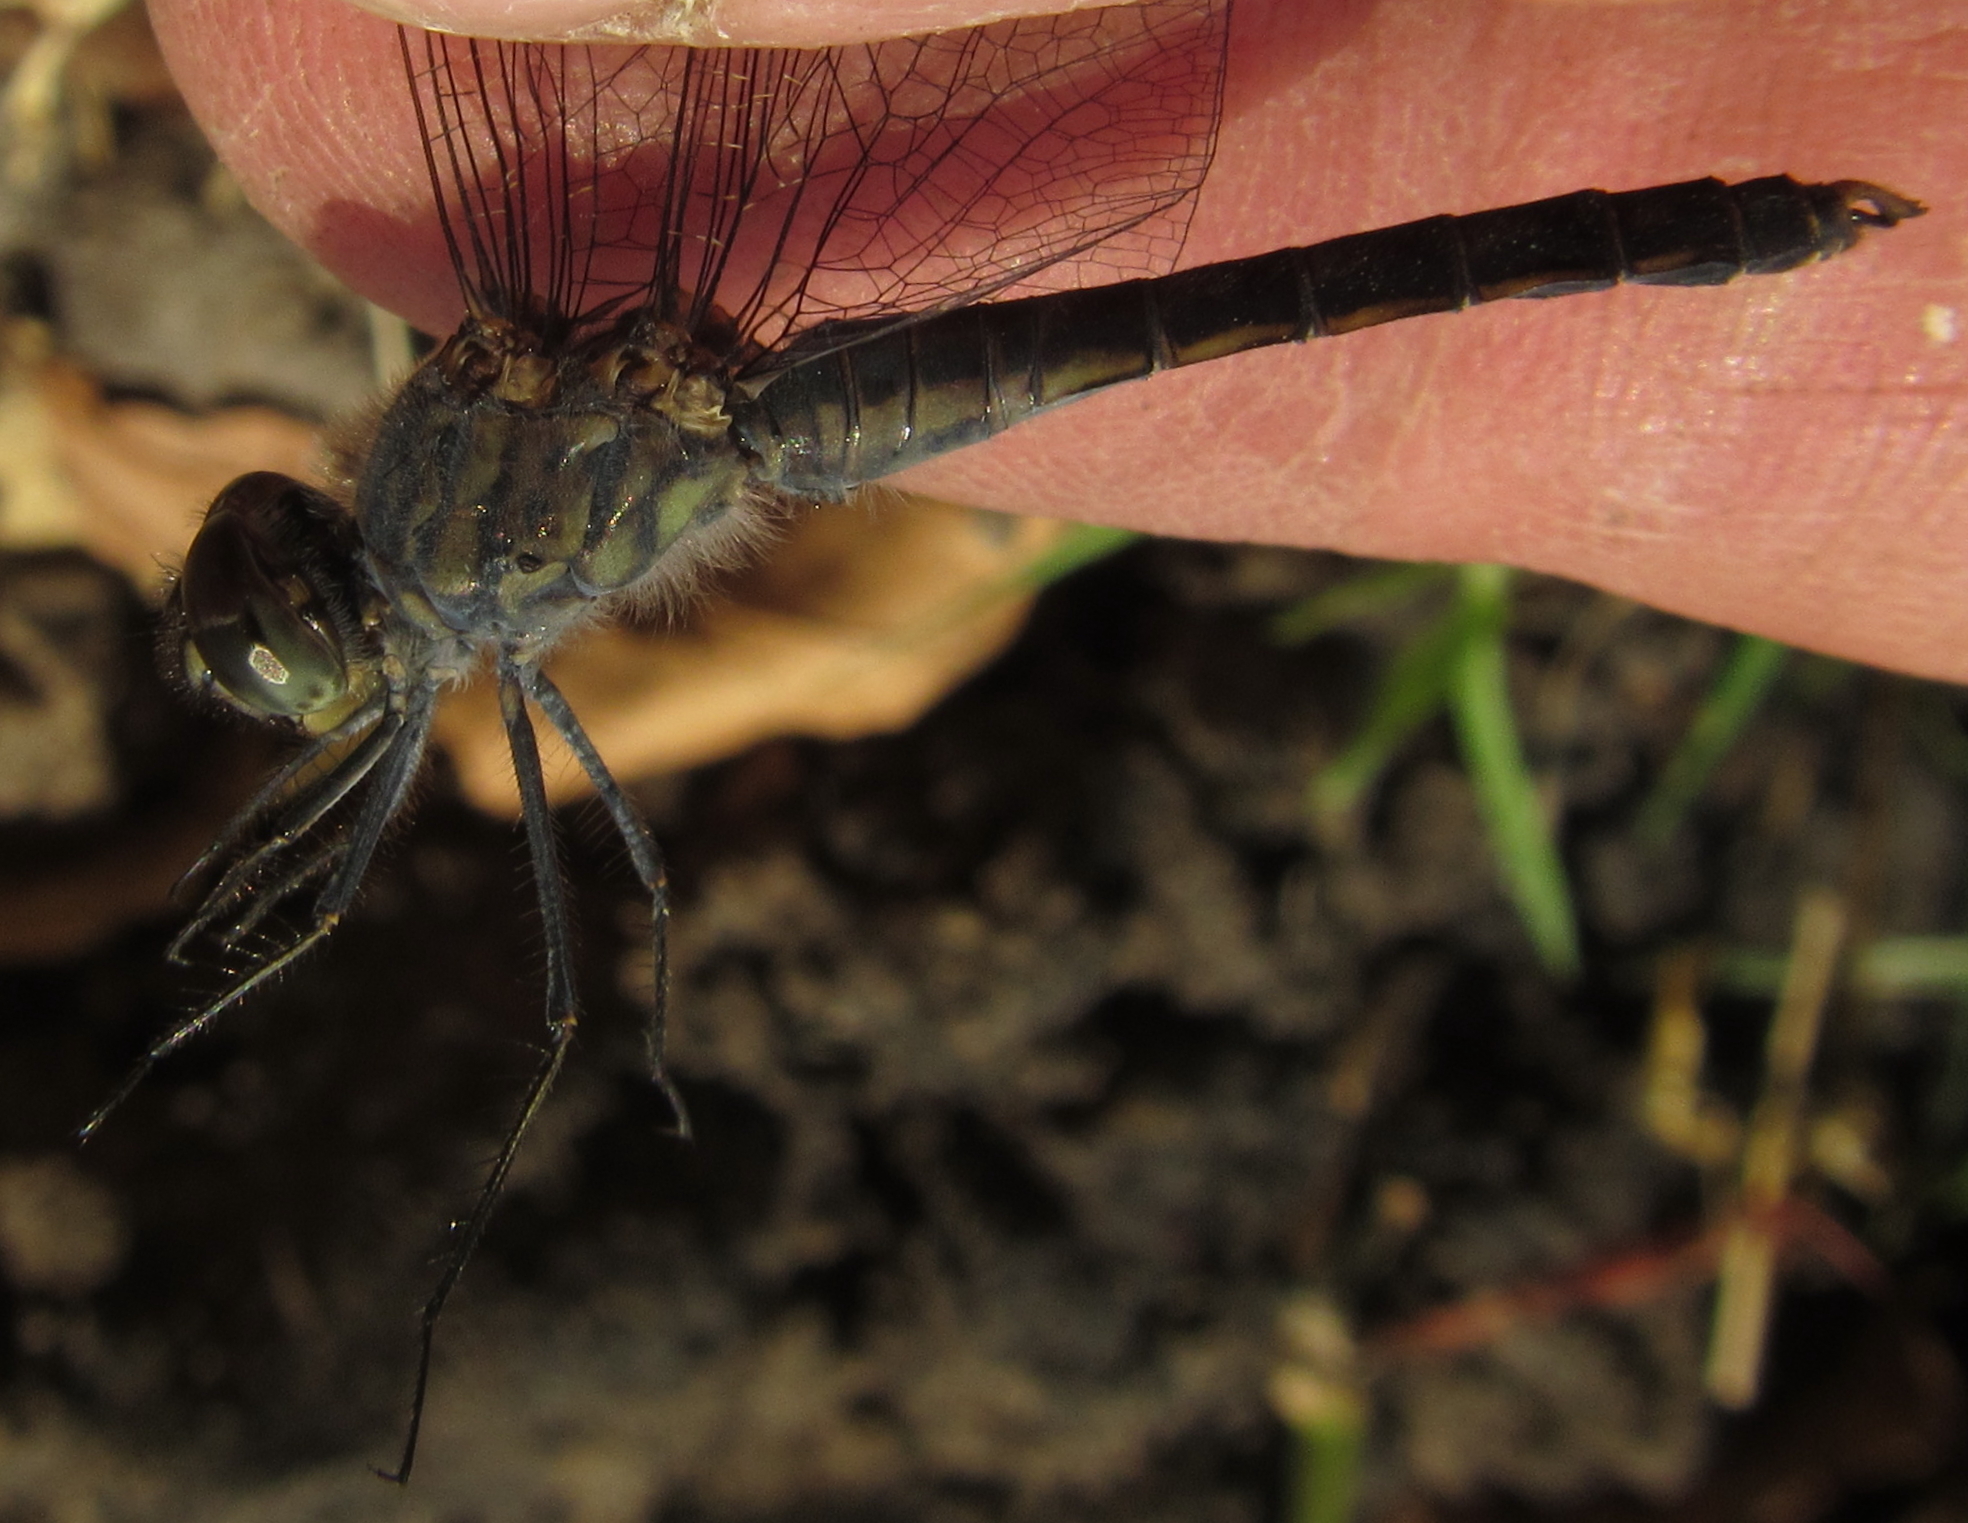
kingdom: Animalia
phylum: Arthropoda
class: Insecta
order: Odonata
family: Libellulidae
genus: Brachythemis
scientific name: Brachythemis leucosticta
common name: Banded groundling
